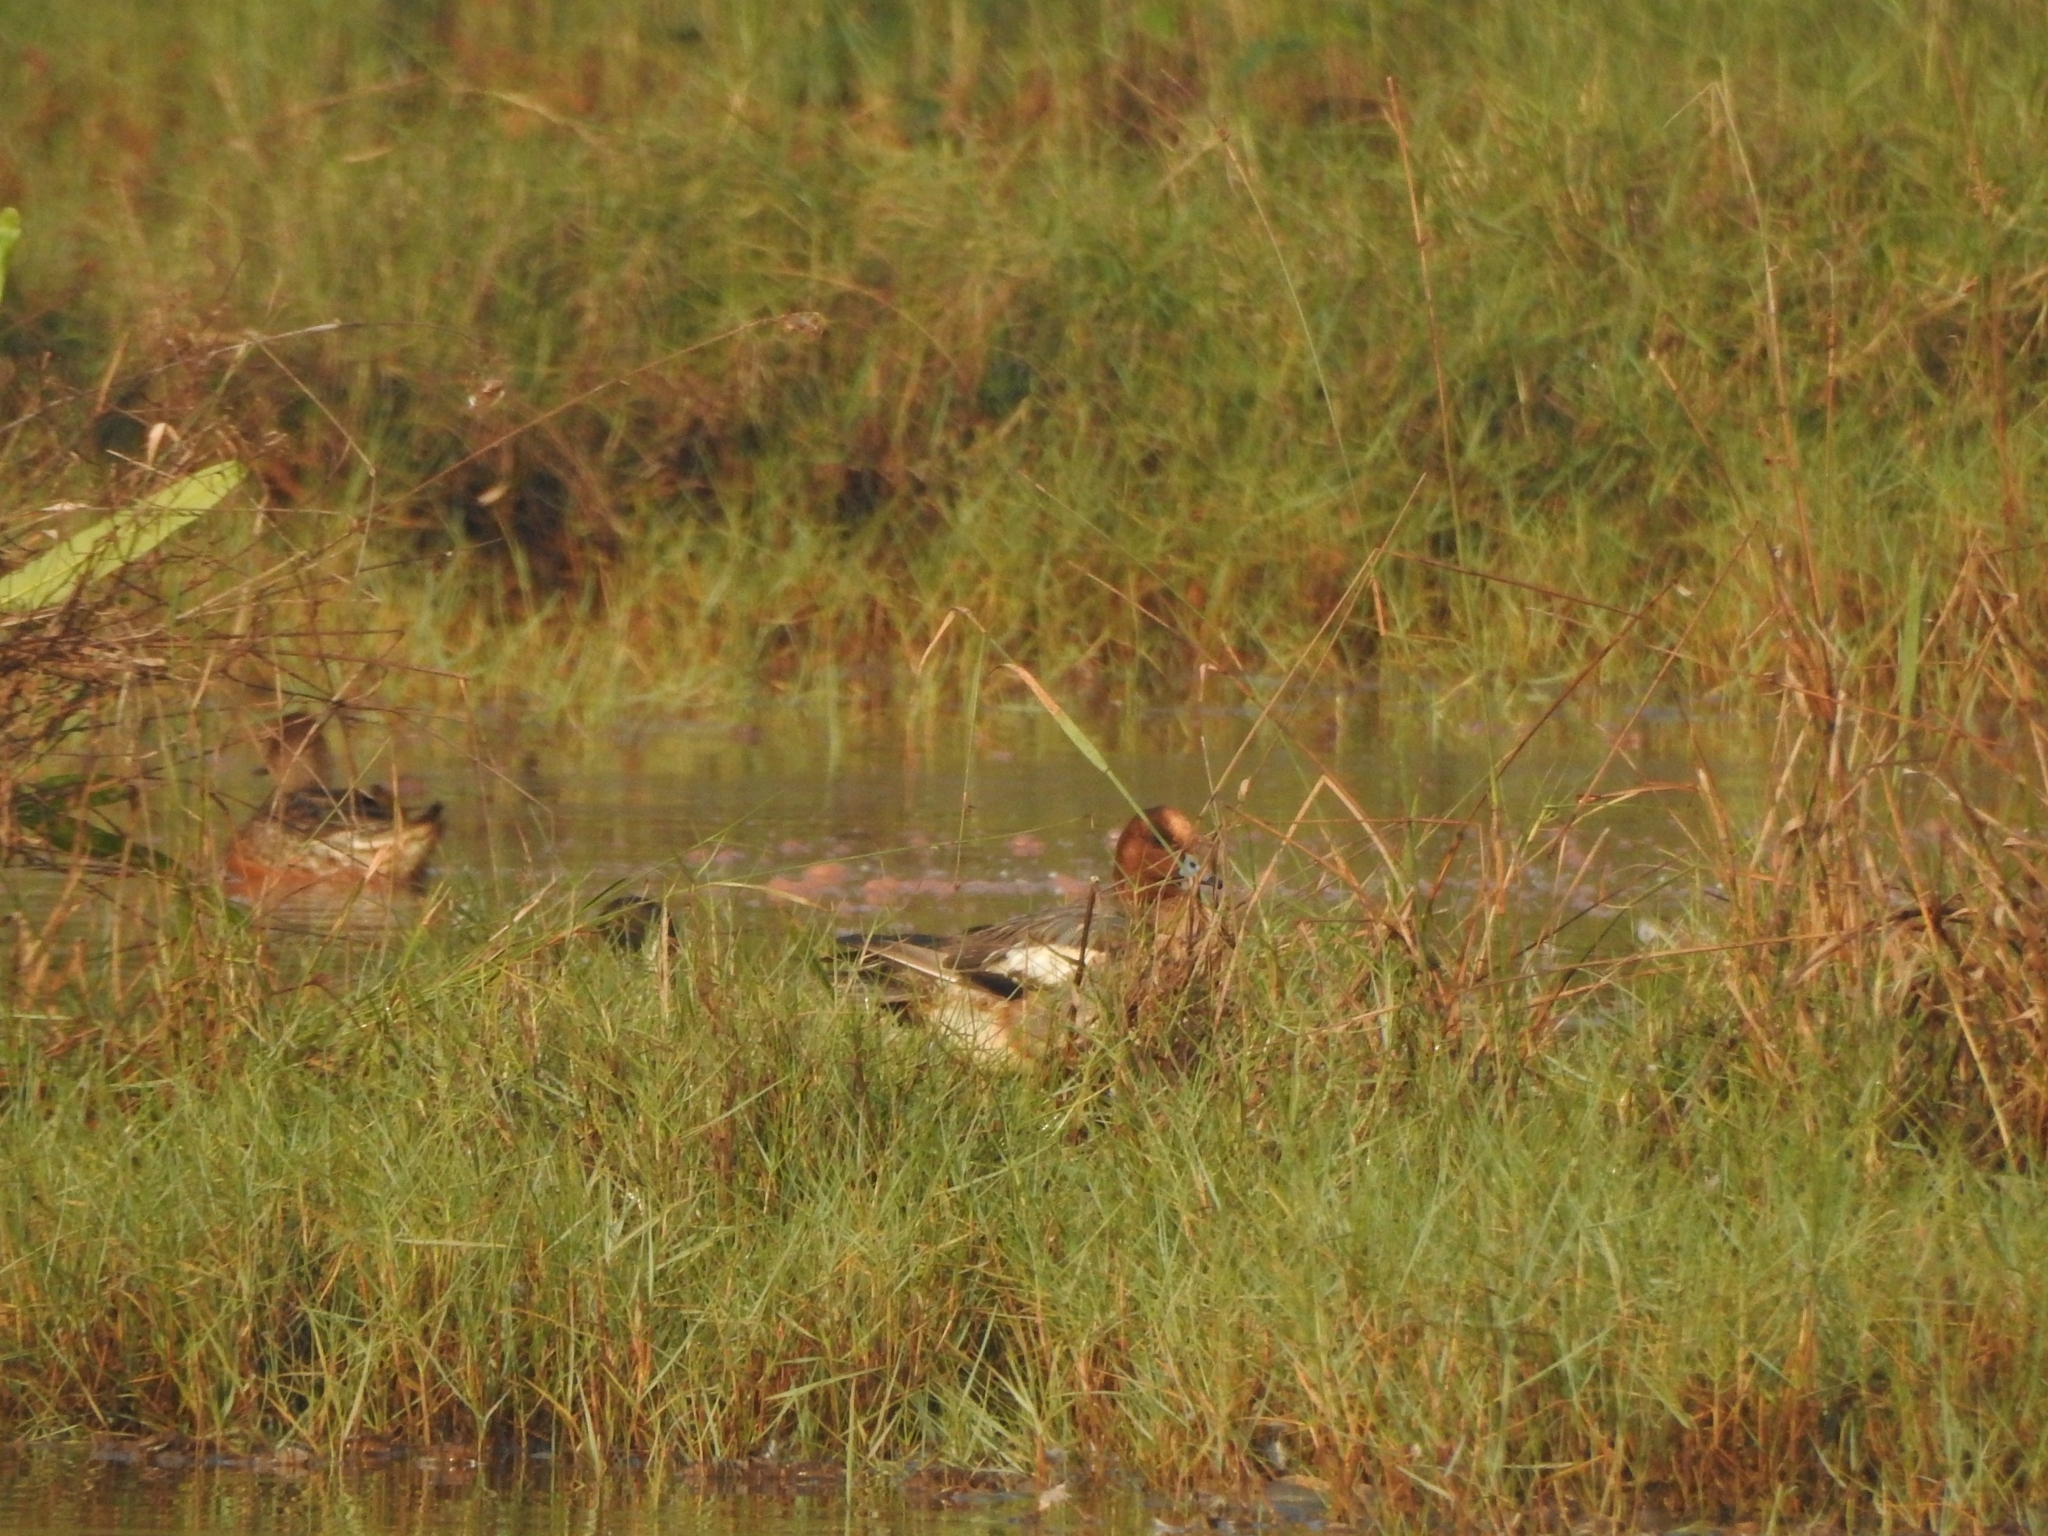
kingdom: Animalia
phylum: Chordata
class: Aves
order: Anseriformes
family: Anatidae
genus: Mareca
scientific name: Mareca penelope
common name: Eurasian wigeon
